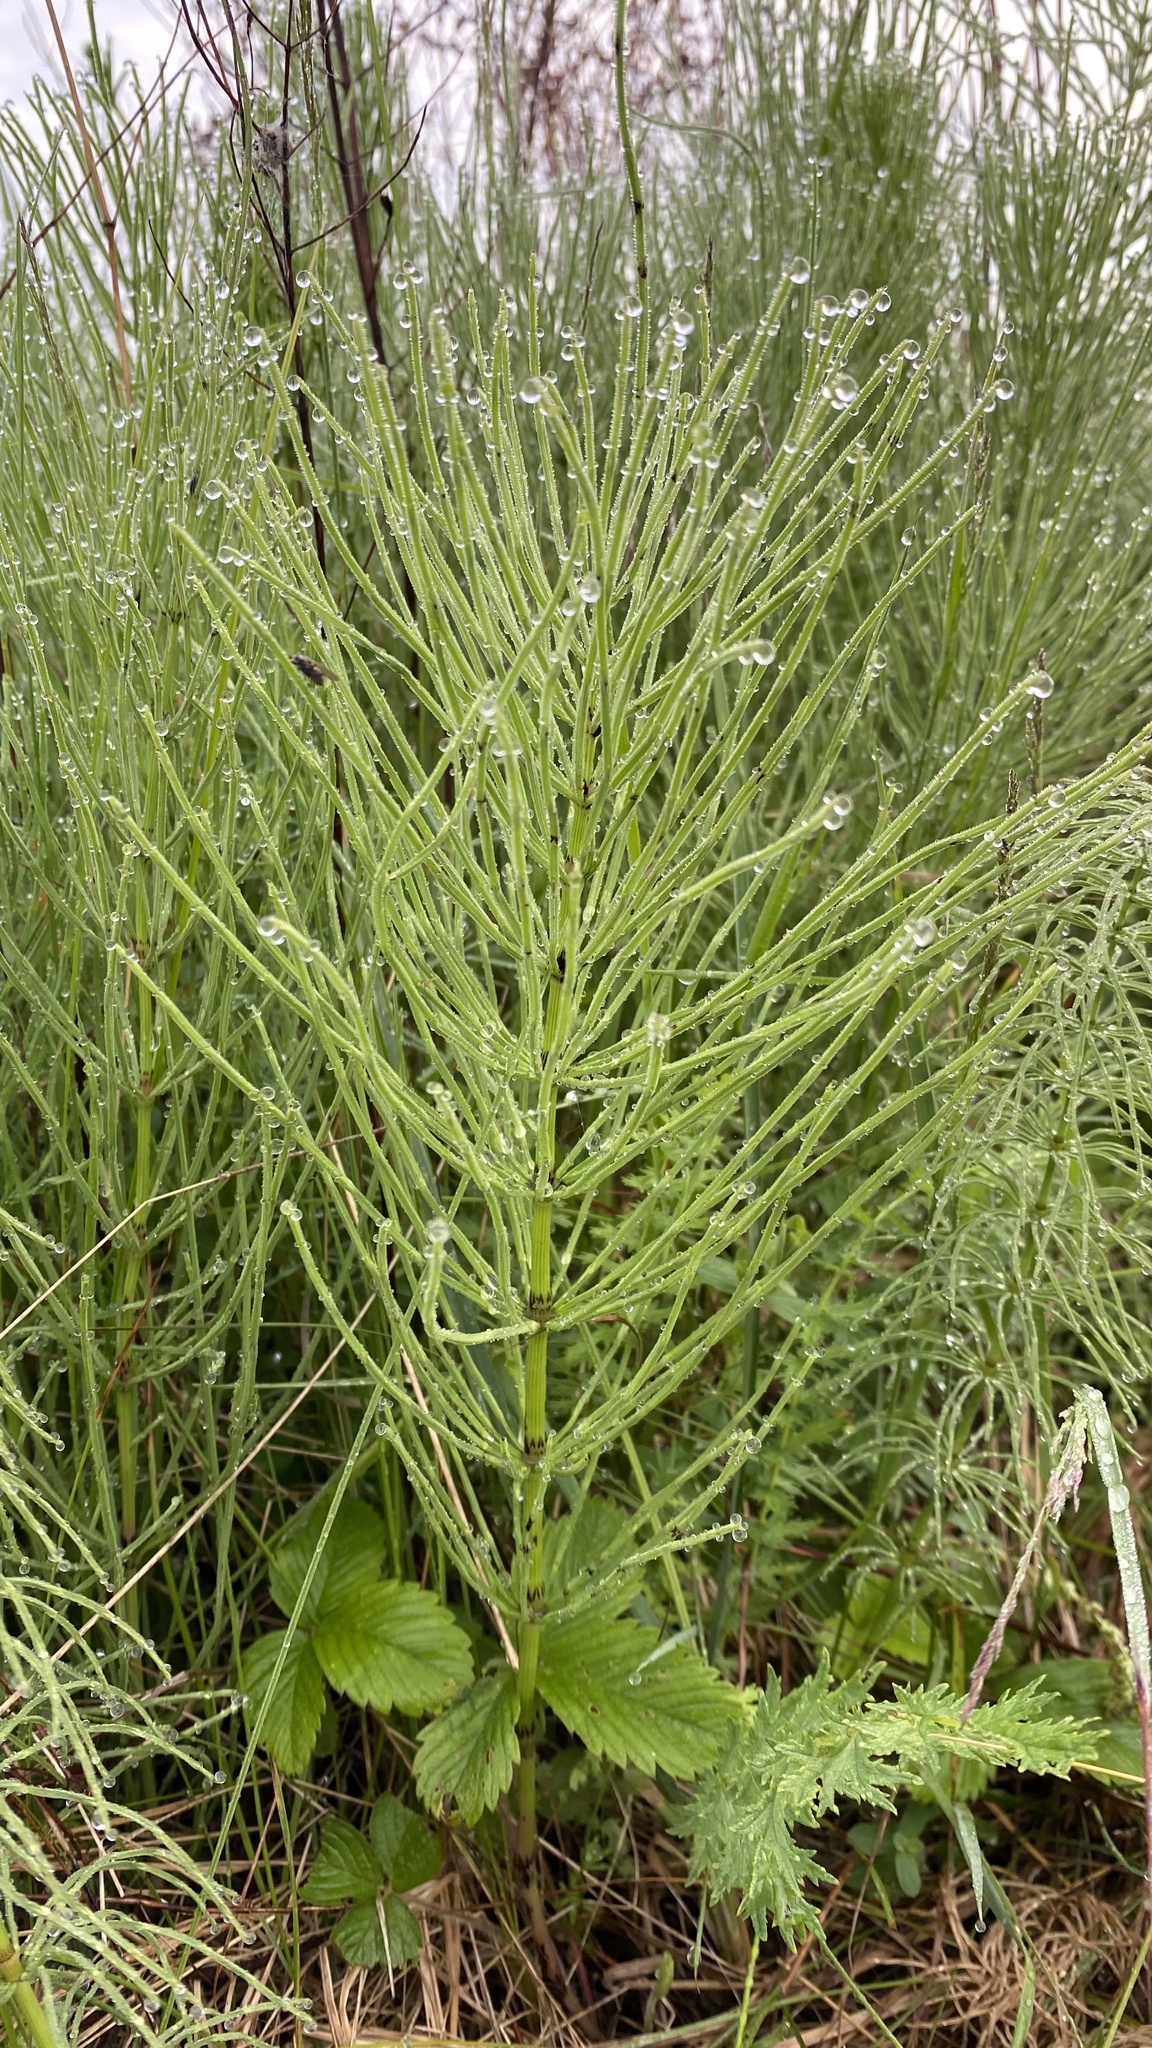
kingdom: Plantae
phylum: Tracheophyta
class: Polypodiopsida
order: Equisetales
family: Equisetaceae
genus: Equisetum
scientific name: Equisetum arvense
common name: Field horsetail
